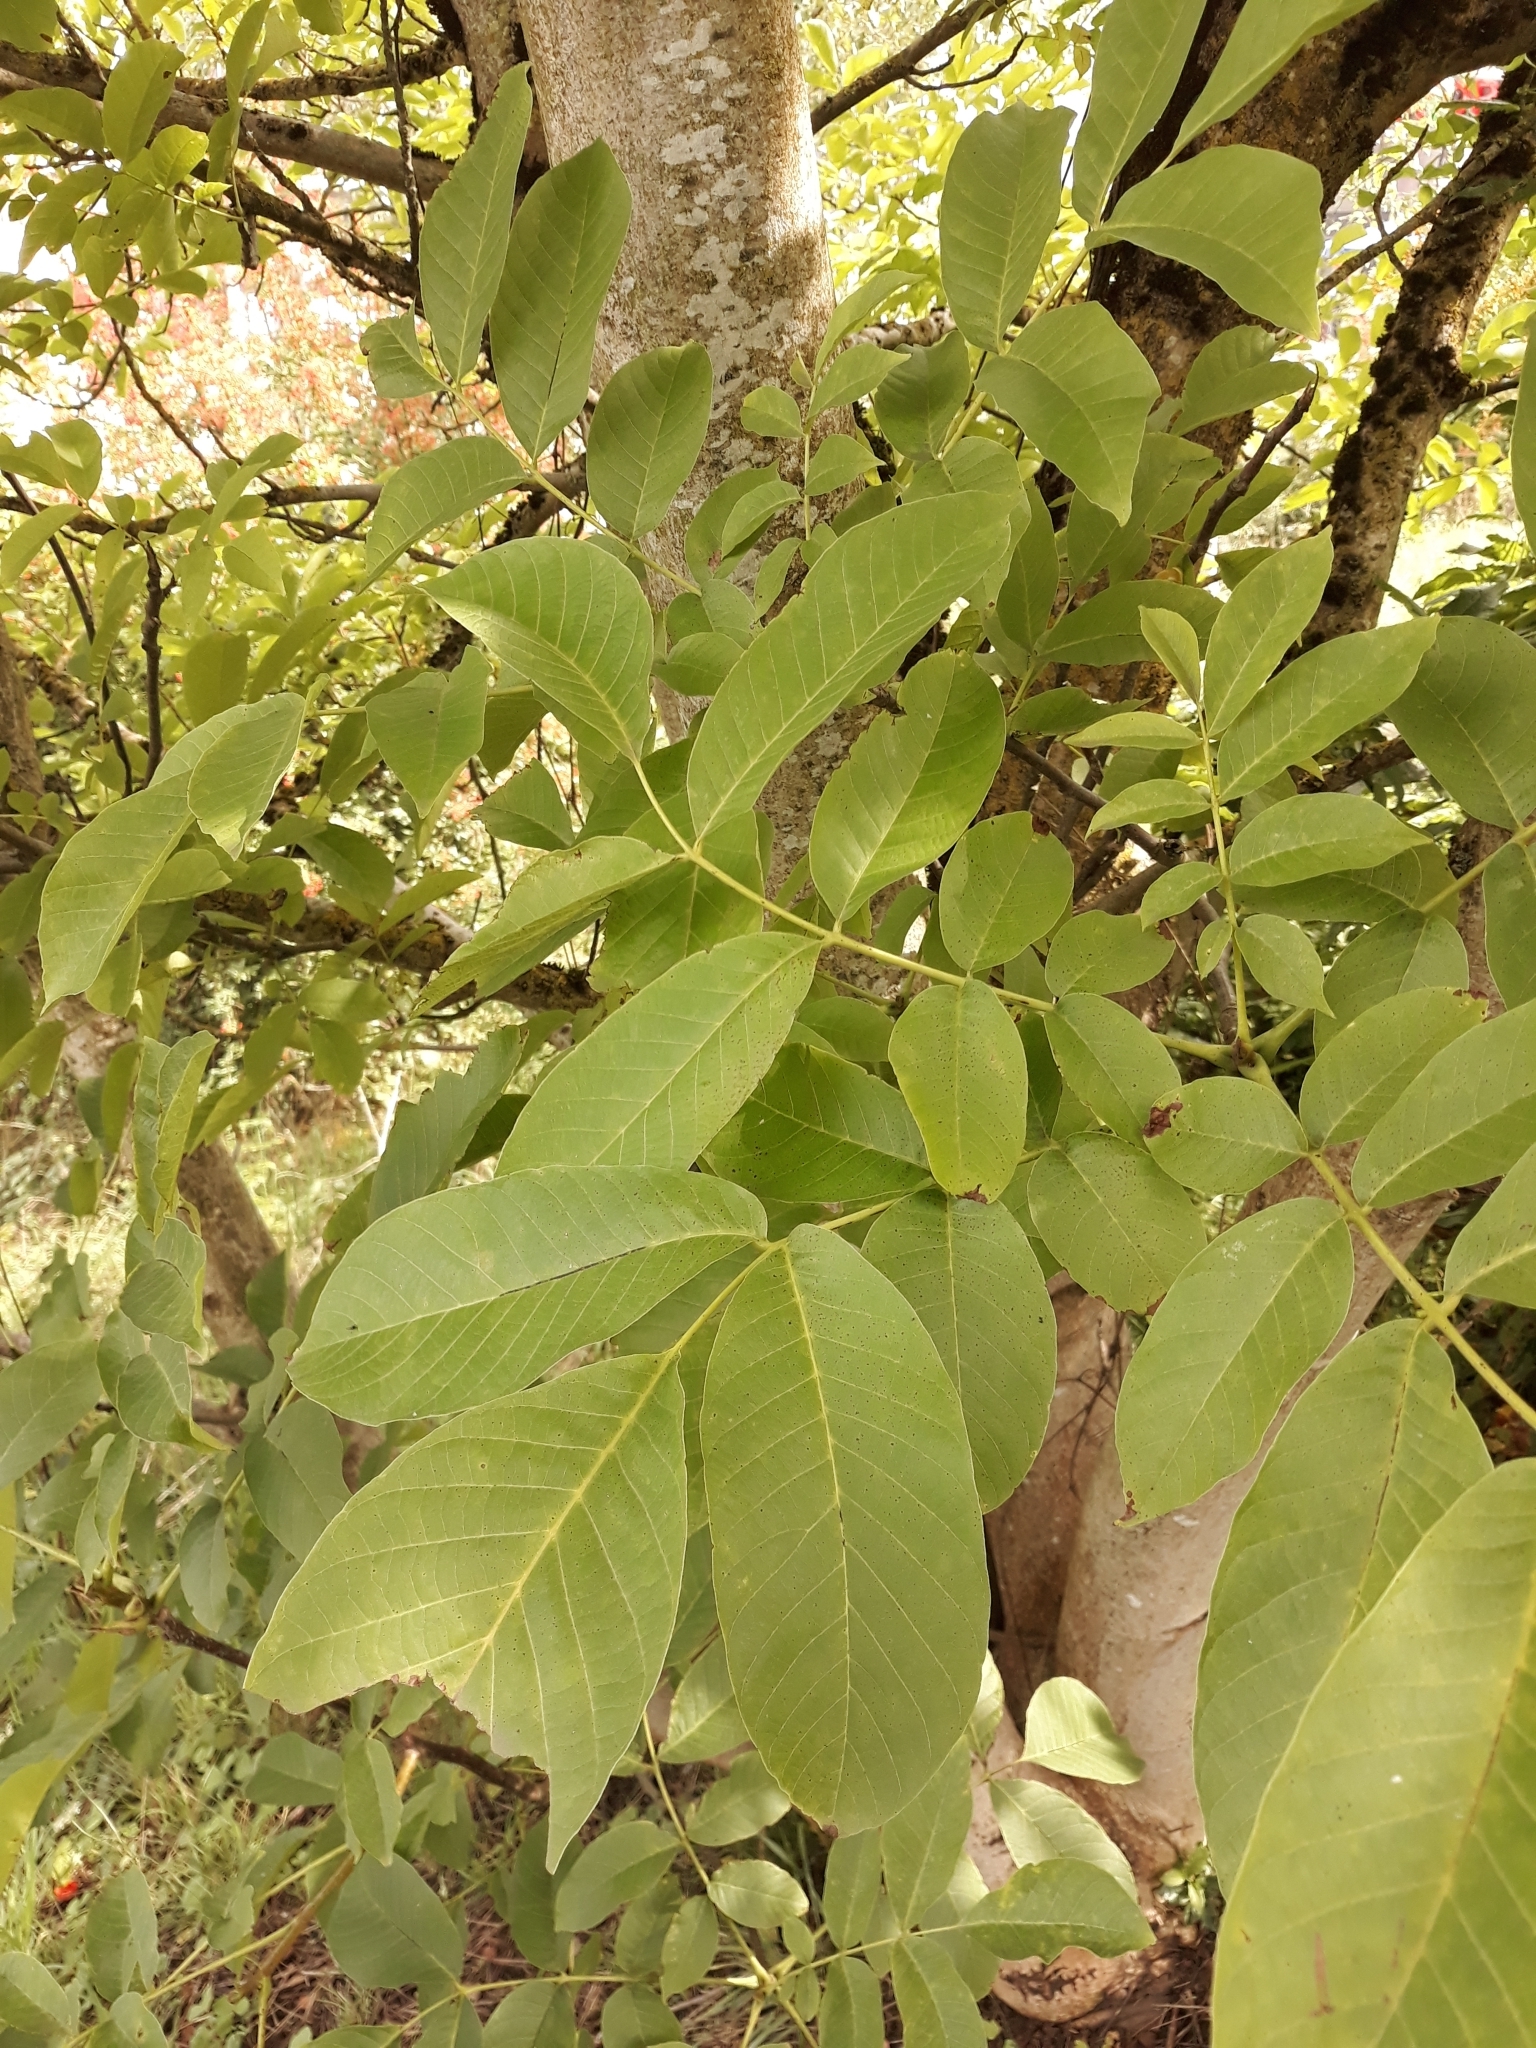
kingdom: Plantae
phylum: Tracheophyta
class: Magnoliopsida
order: Fagales
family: Juglandaceae
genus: Juglans
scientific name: Juglans regia
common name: Walnut
